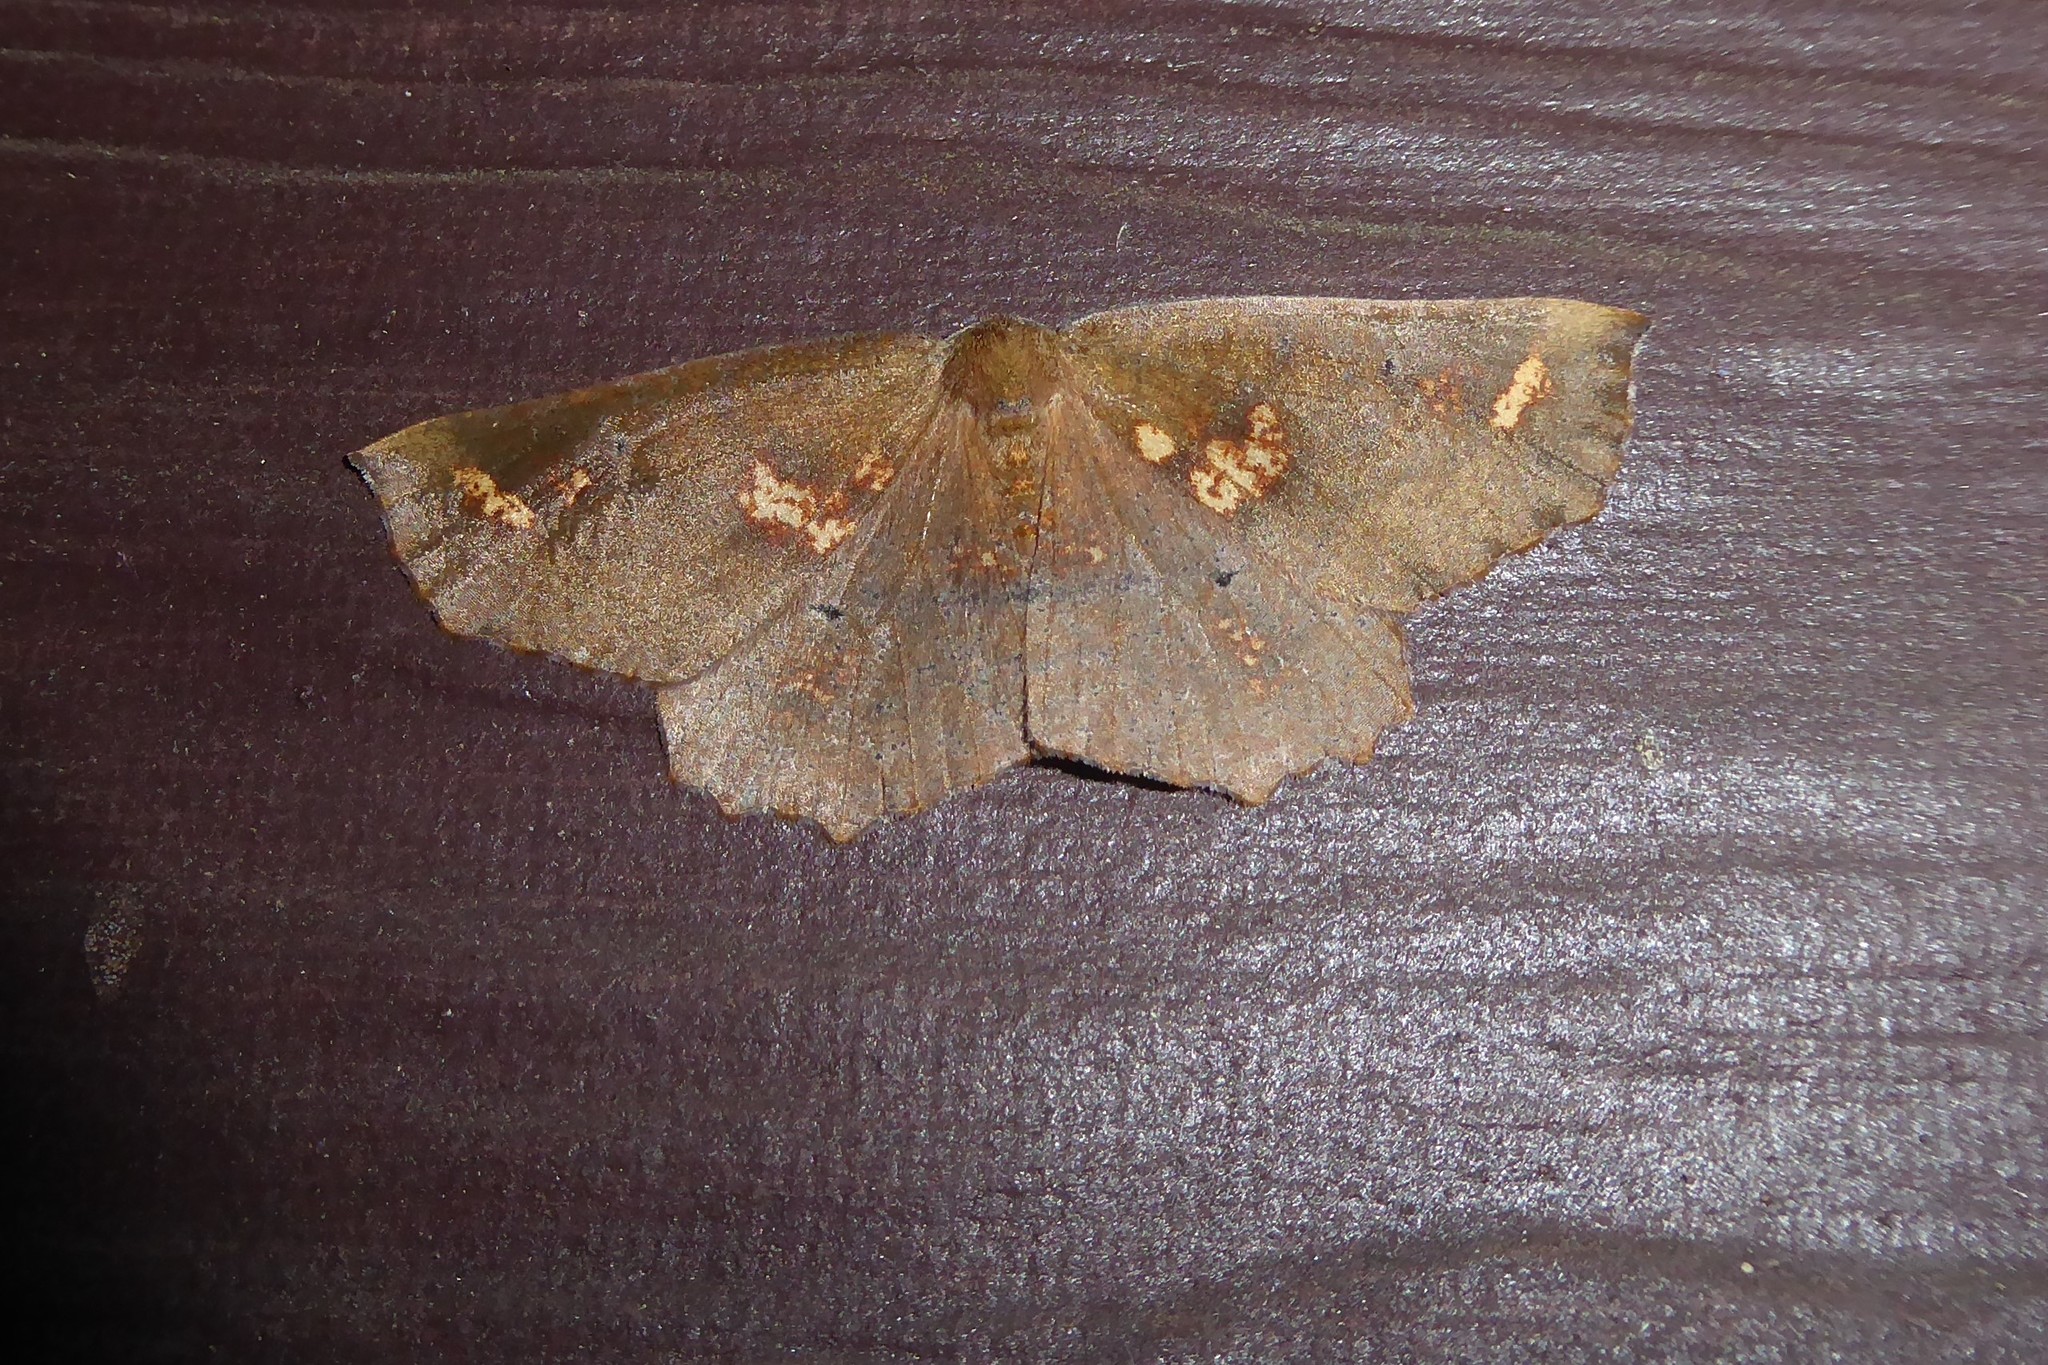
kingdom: Animalia
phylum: Arthropoda
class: Insecta
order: Lepidoptera
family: Geometridae
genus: Xyridacma
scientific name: Xyridacma ustaria
